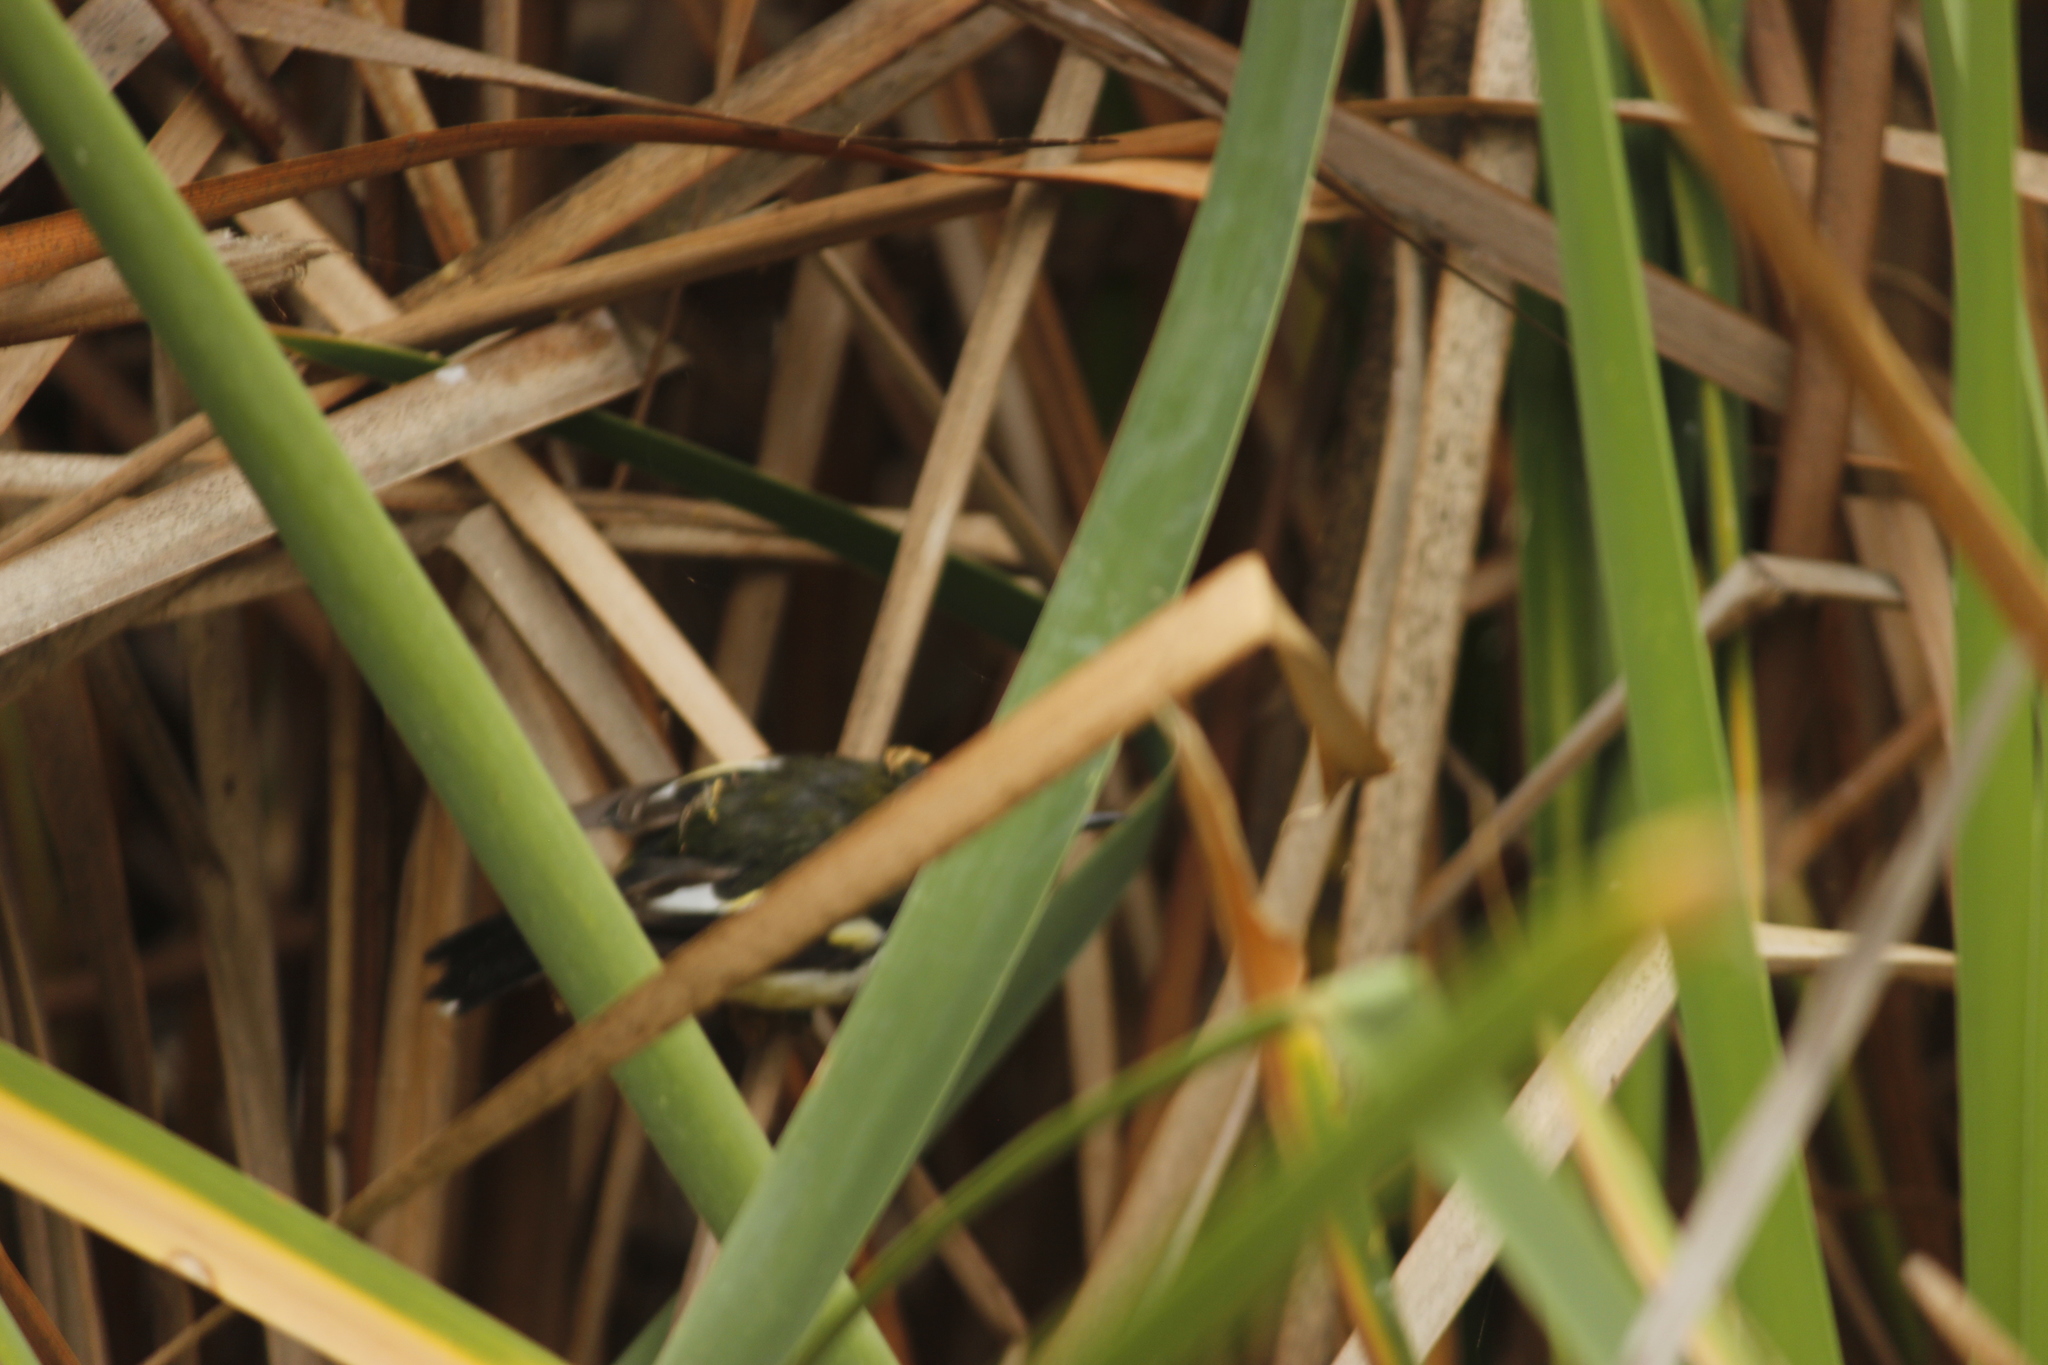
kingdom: Animalia
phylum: Chordata
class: Aves
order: Passeriformes
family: Tyrannidae
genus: Tachuris
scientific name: Tachuris rubrigastra
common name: Many-colored rush tyrant
